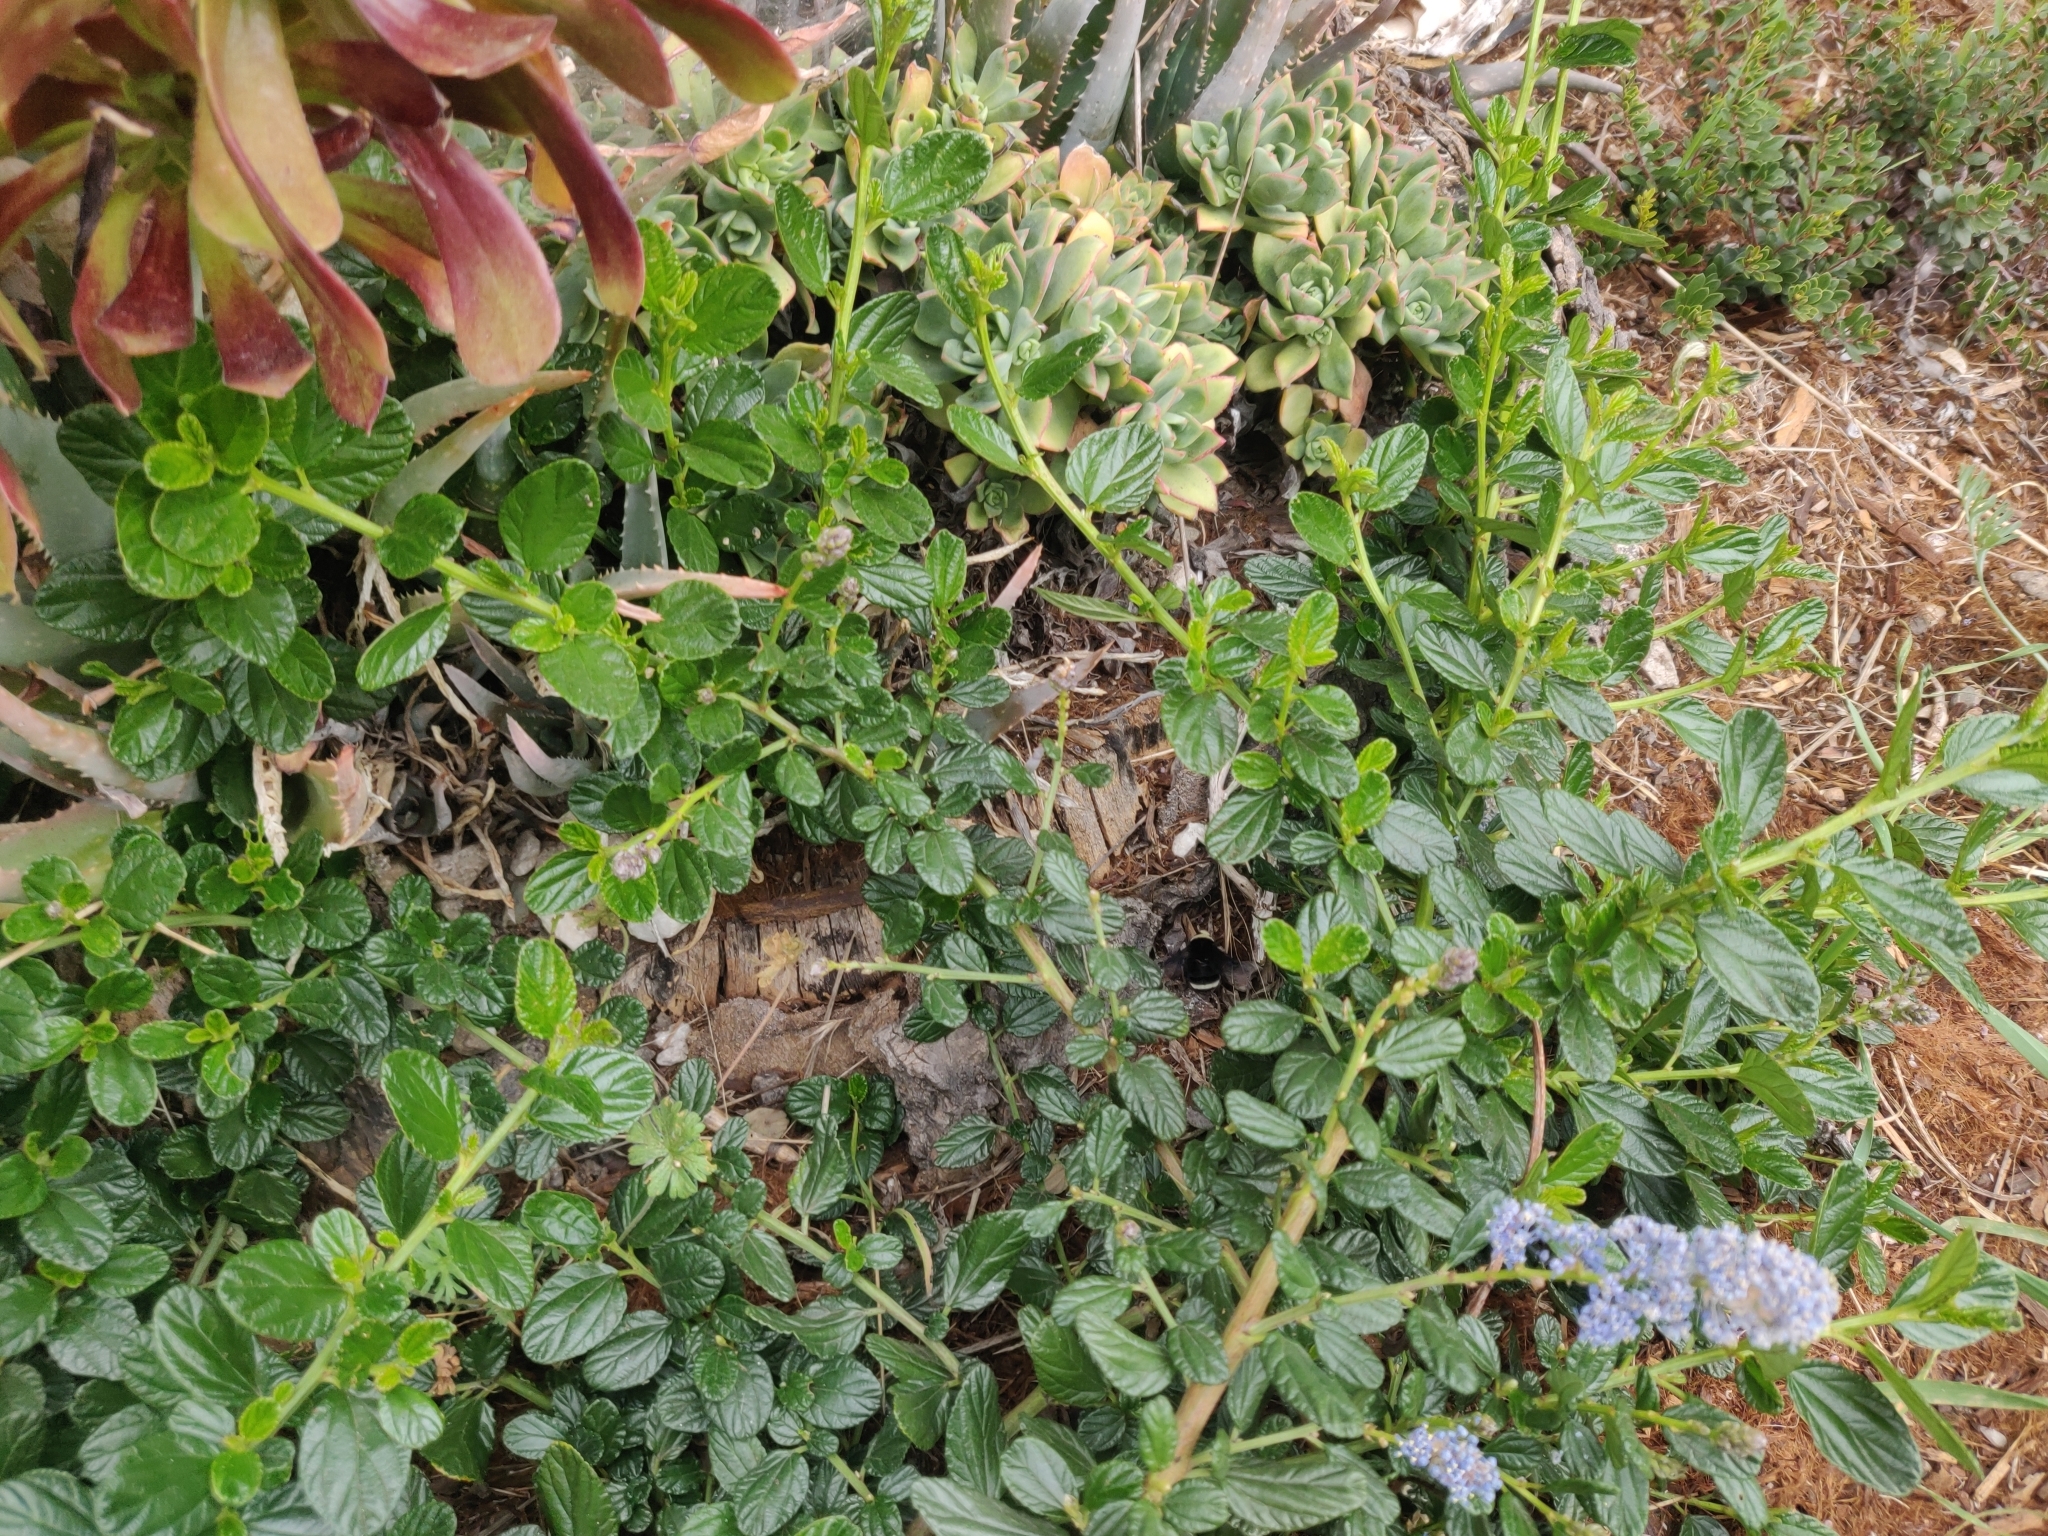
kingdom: Animalia
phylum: Arthropoda
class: Insecta
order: Hymenoptera
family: Apidae
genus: Bombus
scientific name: Bombus vosnesenskii
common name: Vosnesensky bumble bee
